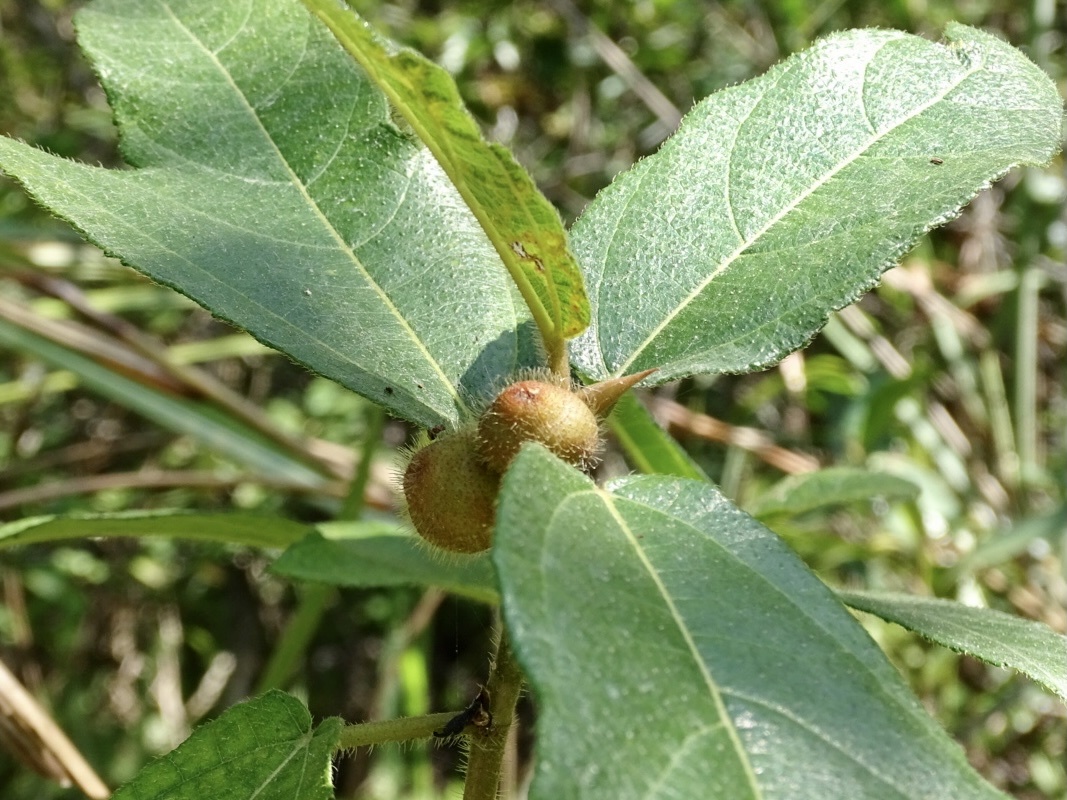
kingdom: Plantae
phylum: Tracheophyta
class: Magnoliopsida
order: Rosales
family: Moraceae
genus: Ficus
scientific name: Ficus simplicissima
